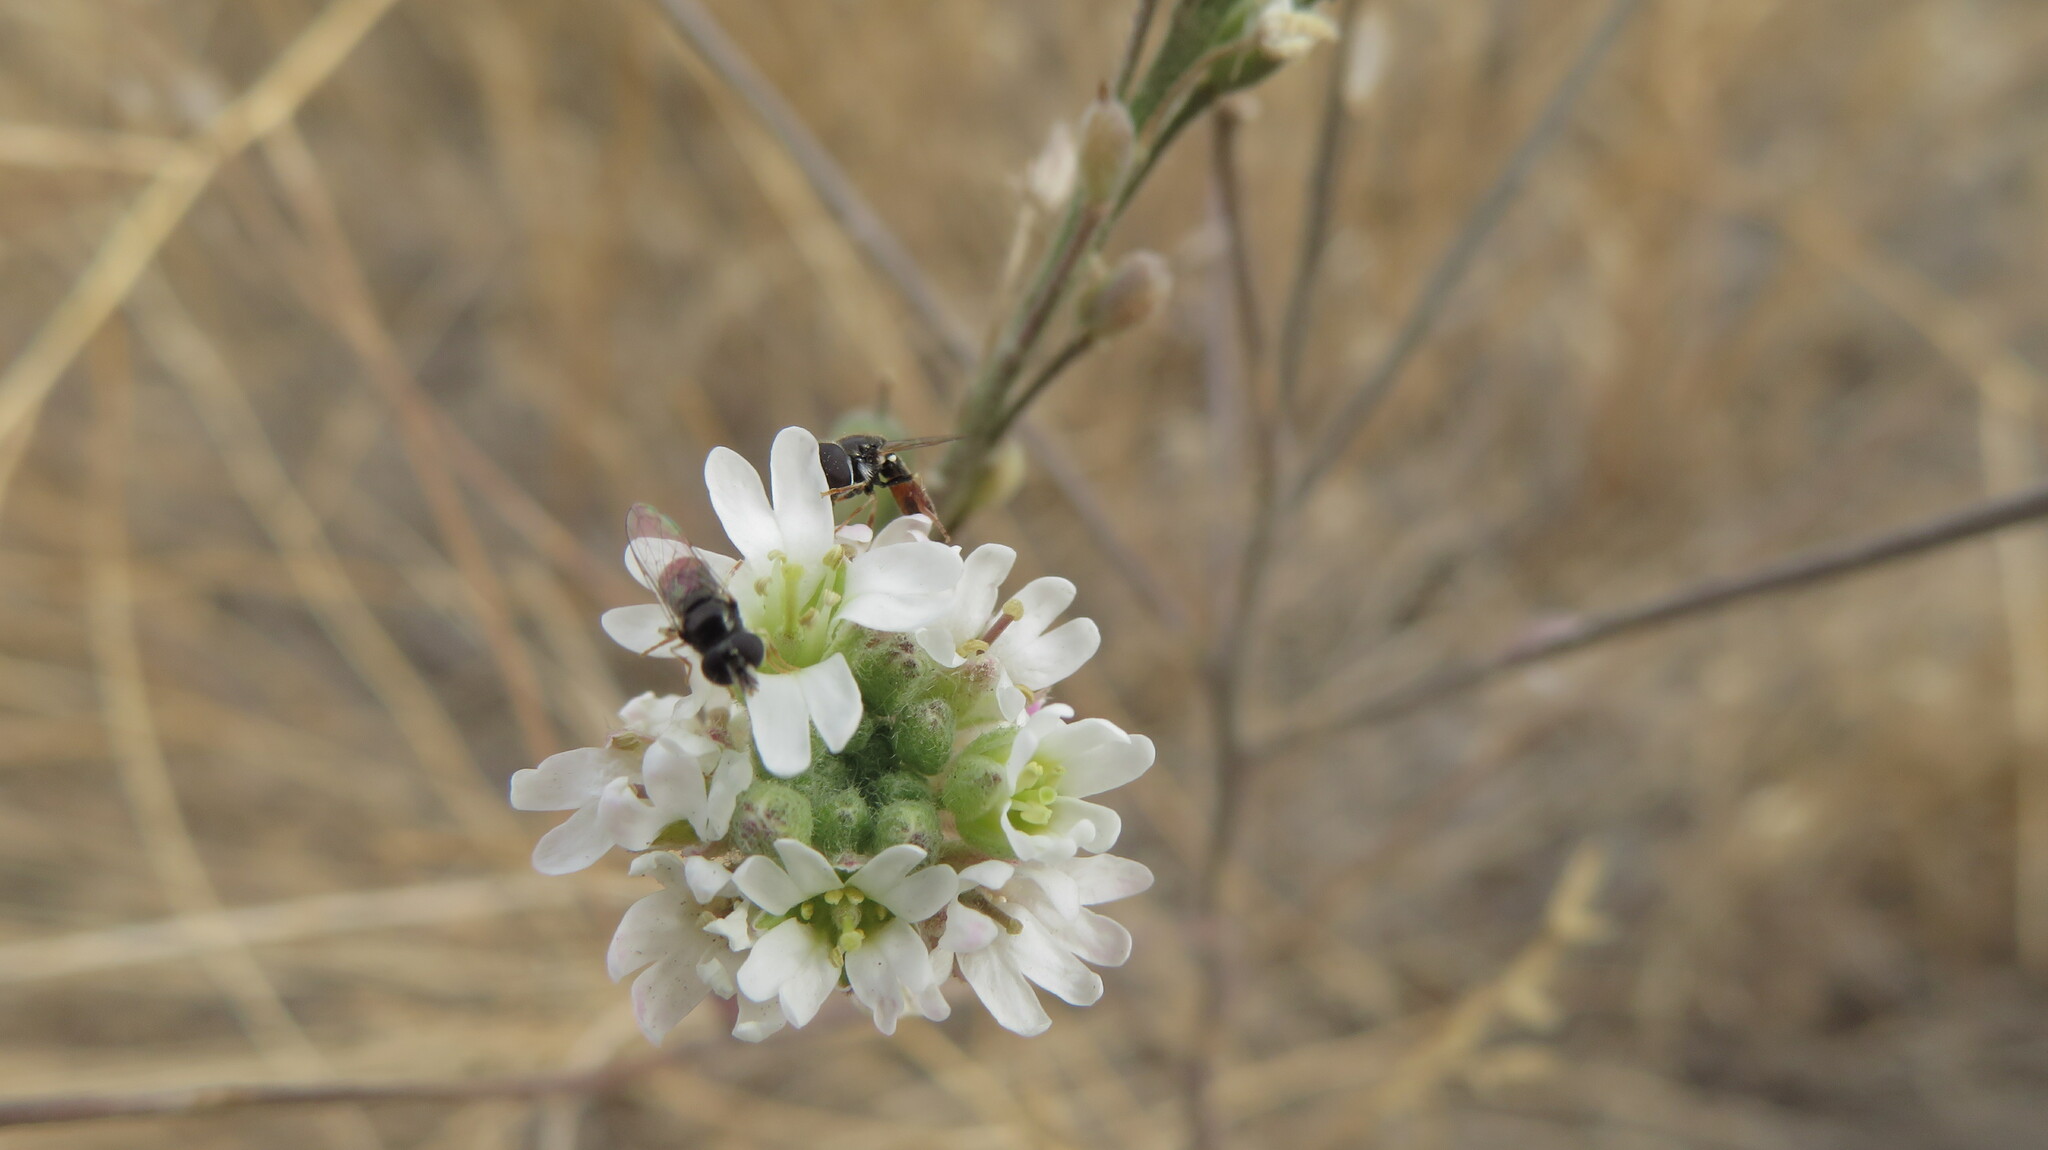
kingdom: Plantae
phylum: Tracheophyta
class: Magnoliopsida
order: Brassicales
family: Brassicaceae
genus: Berteroa
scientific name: Berteroa incana
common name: Hoary alison
